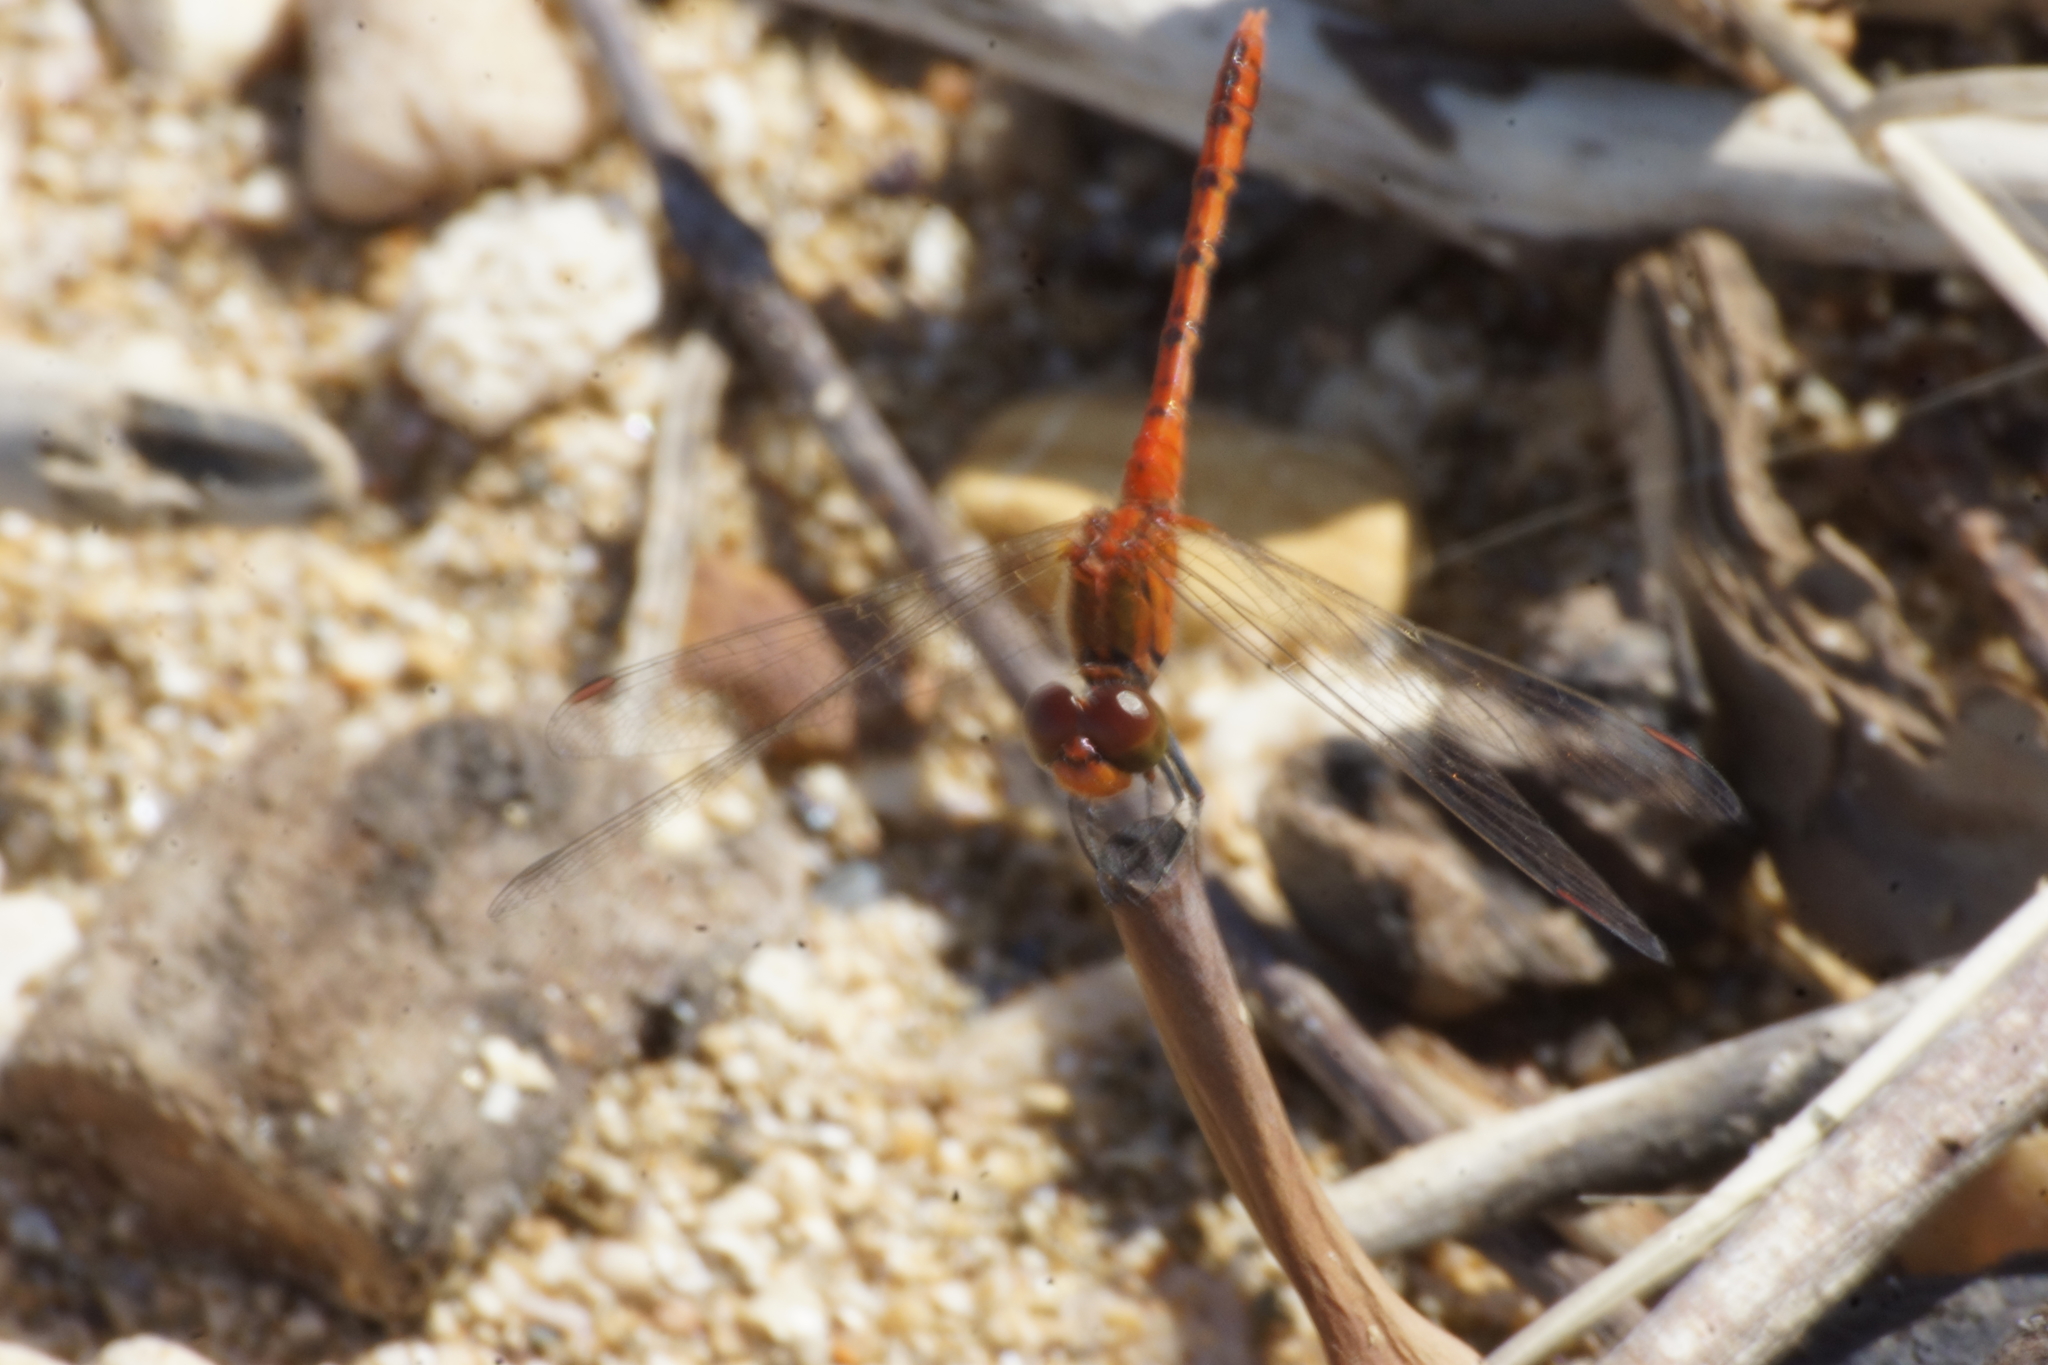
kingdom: Animalia
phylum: Arthropoda
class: Insecta
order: Odonata
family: Libellulidae
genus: Diplacodes
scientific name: Diplacodes bipunctata
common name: Red percher dragonfly
